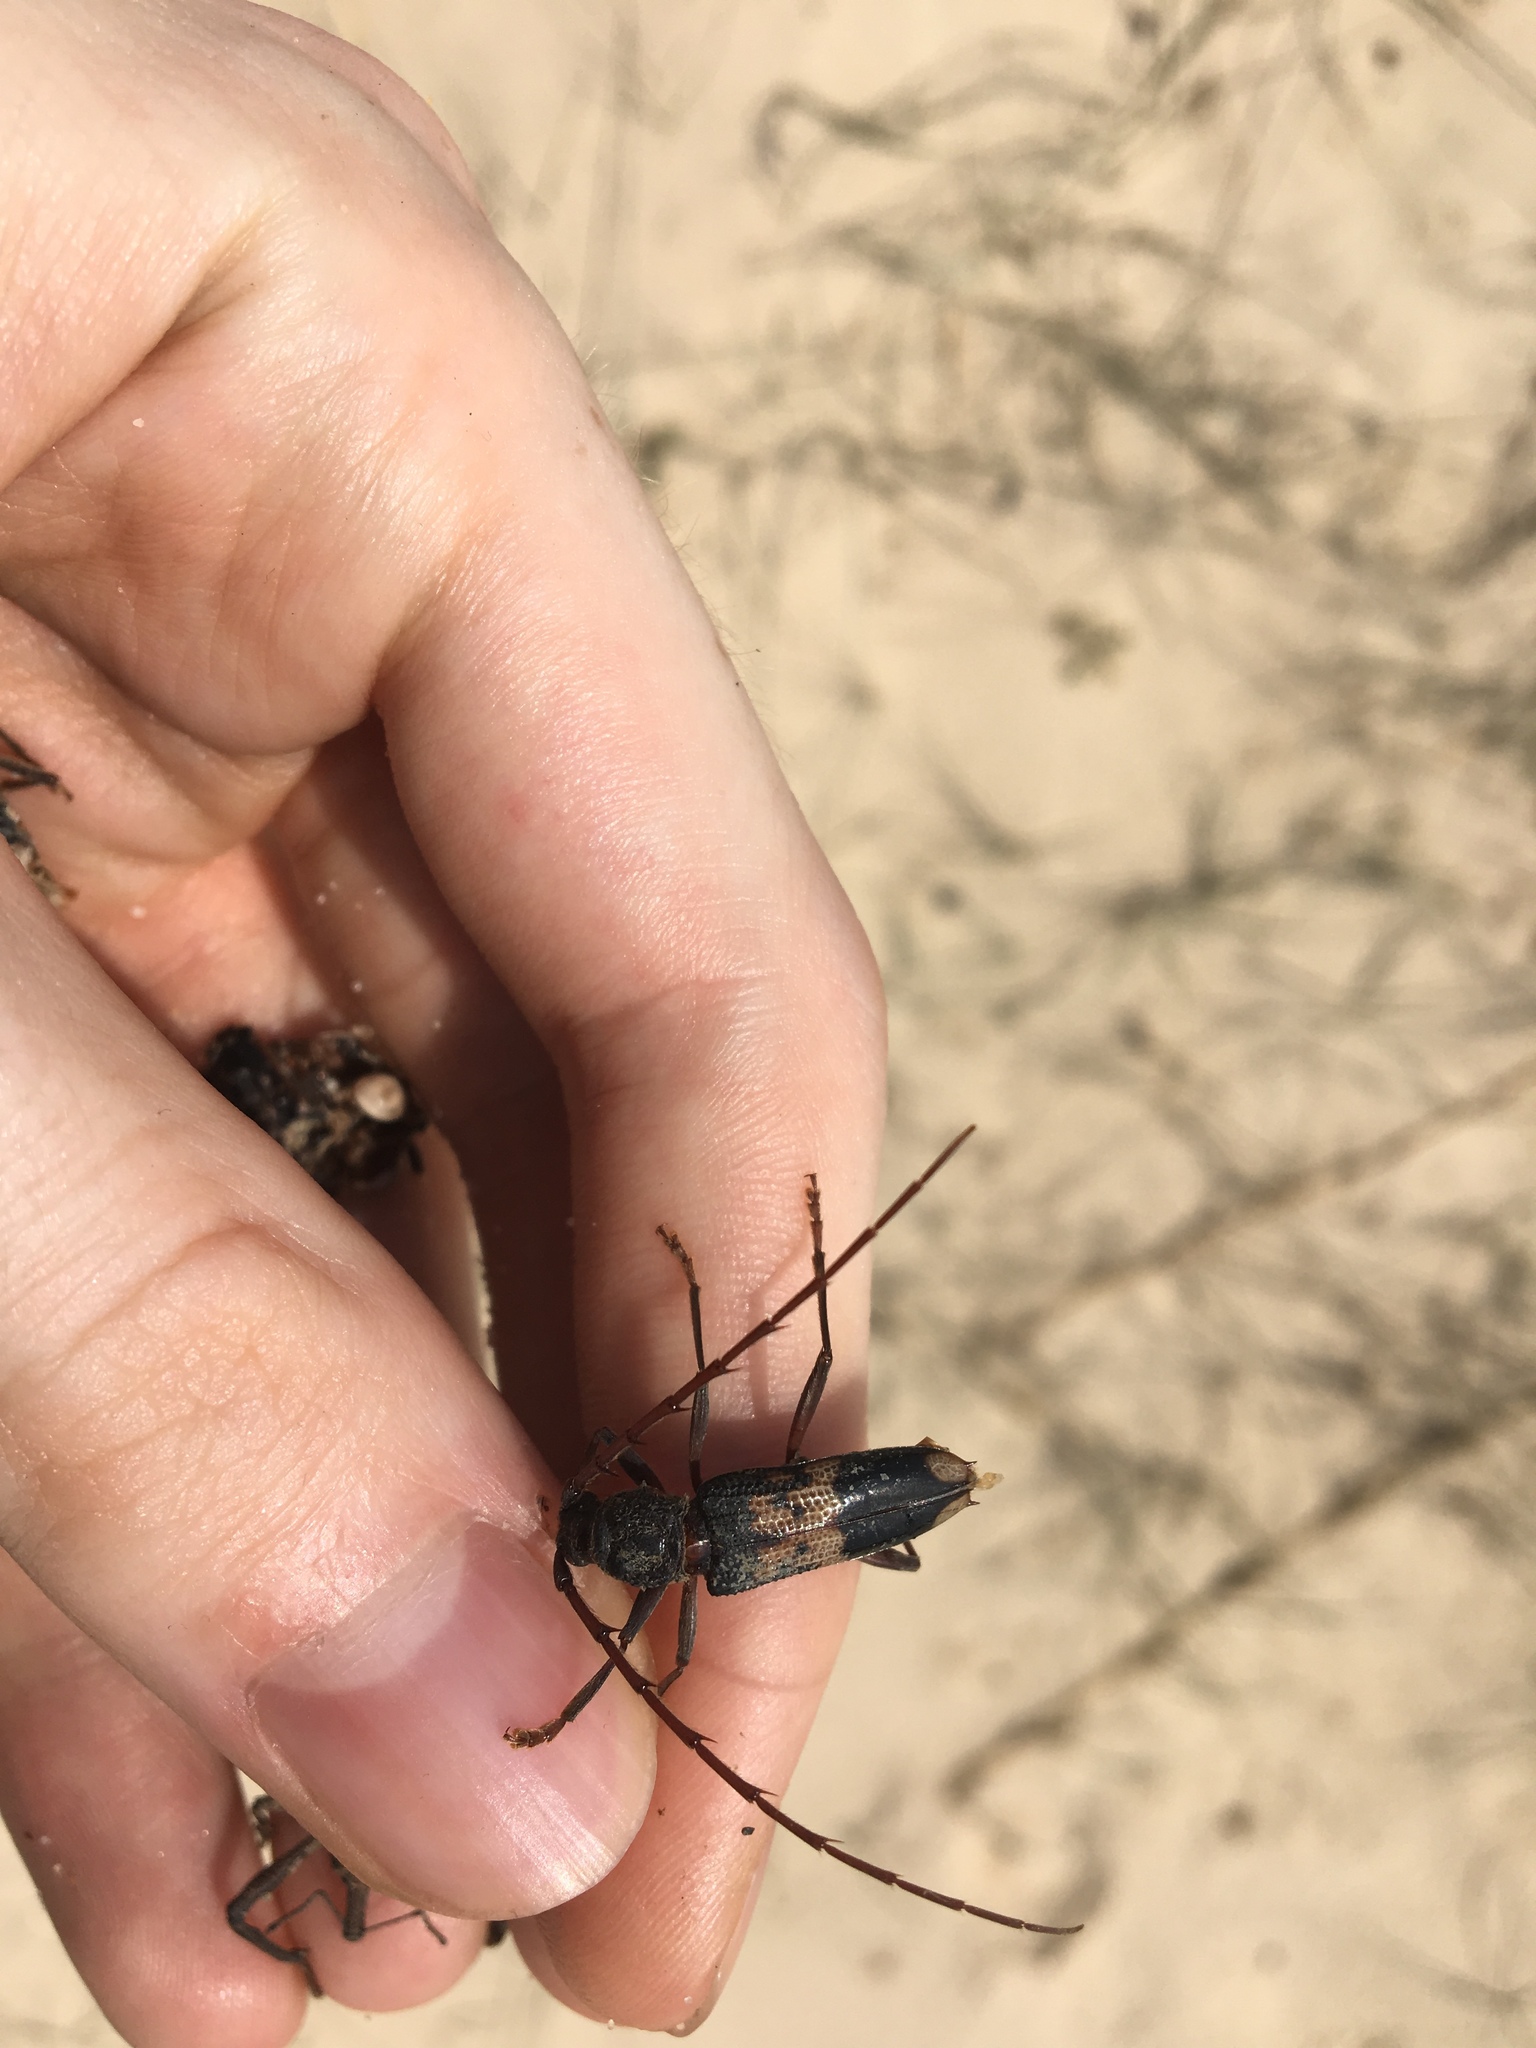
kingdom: Animalia
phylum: Arthropoda
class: Insecta
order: Coleoptera
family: Cerambycidae
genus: Phoracantha
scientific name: Phoracantha semipunctata
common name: Eucalyptus longhorn borer
